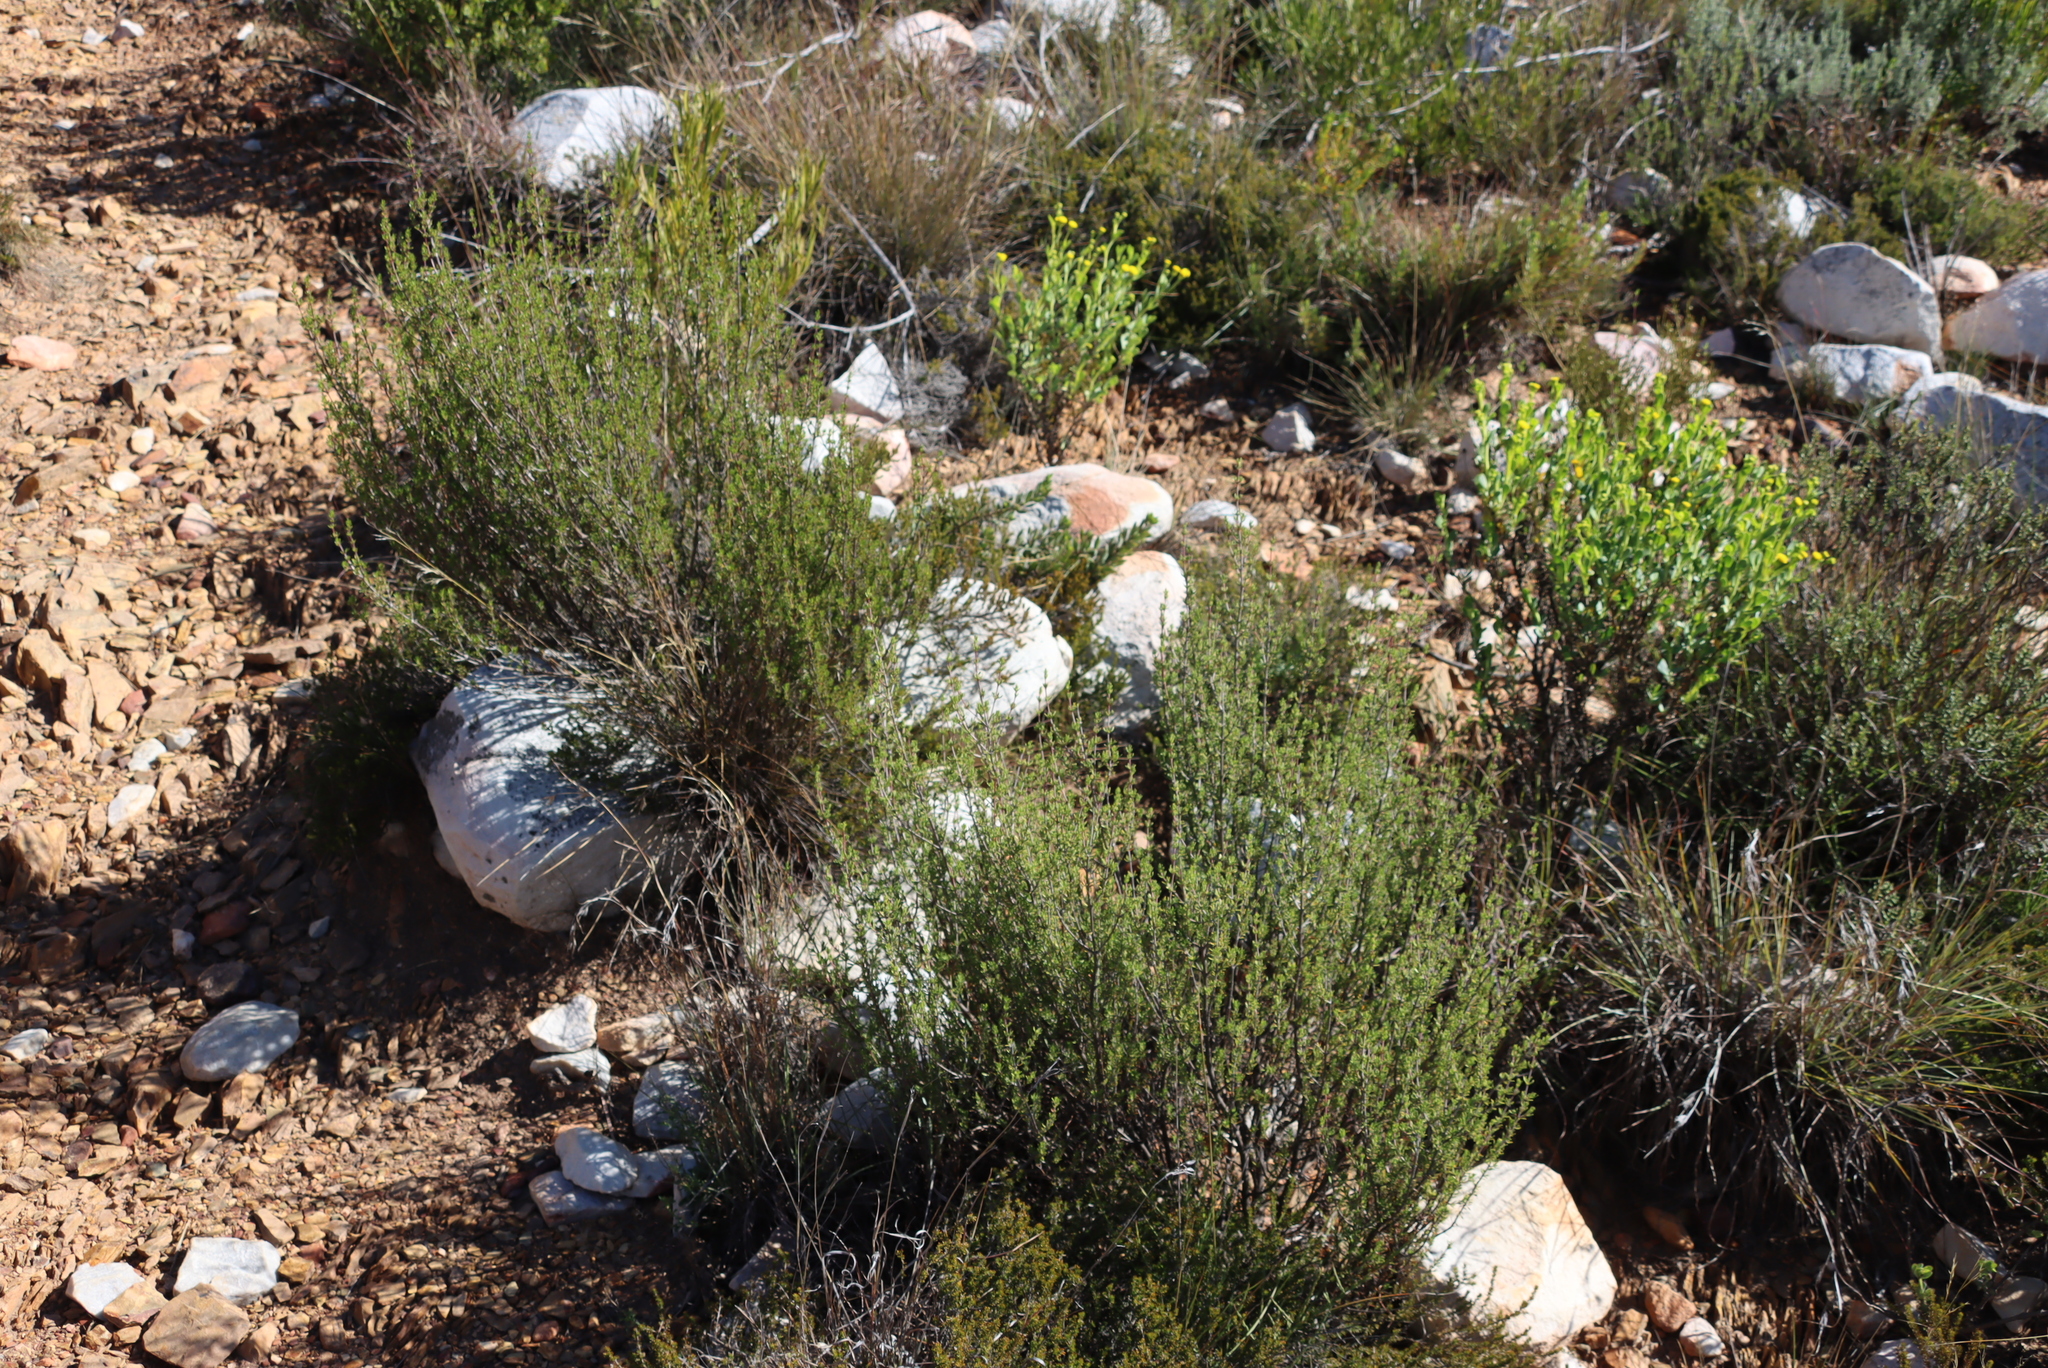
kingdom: Plantae
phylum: Tracheophyta
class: Magnoliopsida
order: Gentianales
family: Rubiaceae
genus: Anthospermum
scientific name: Anthospermum spathulatum
